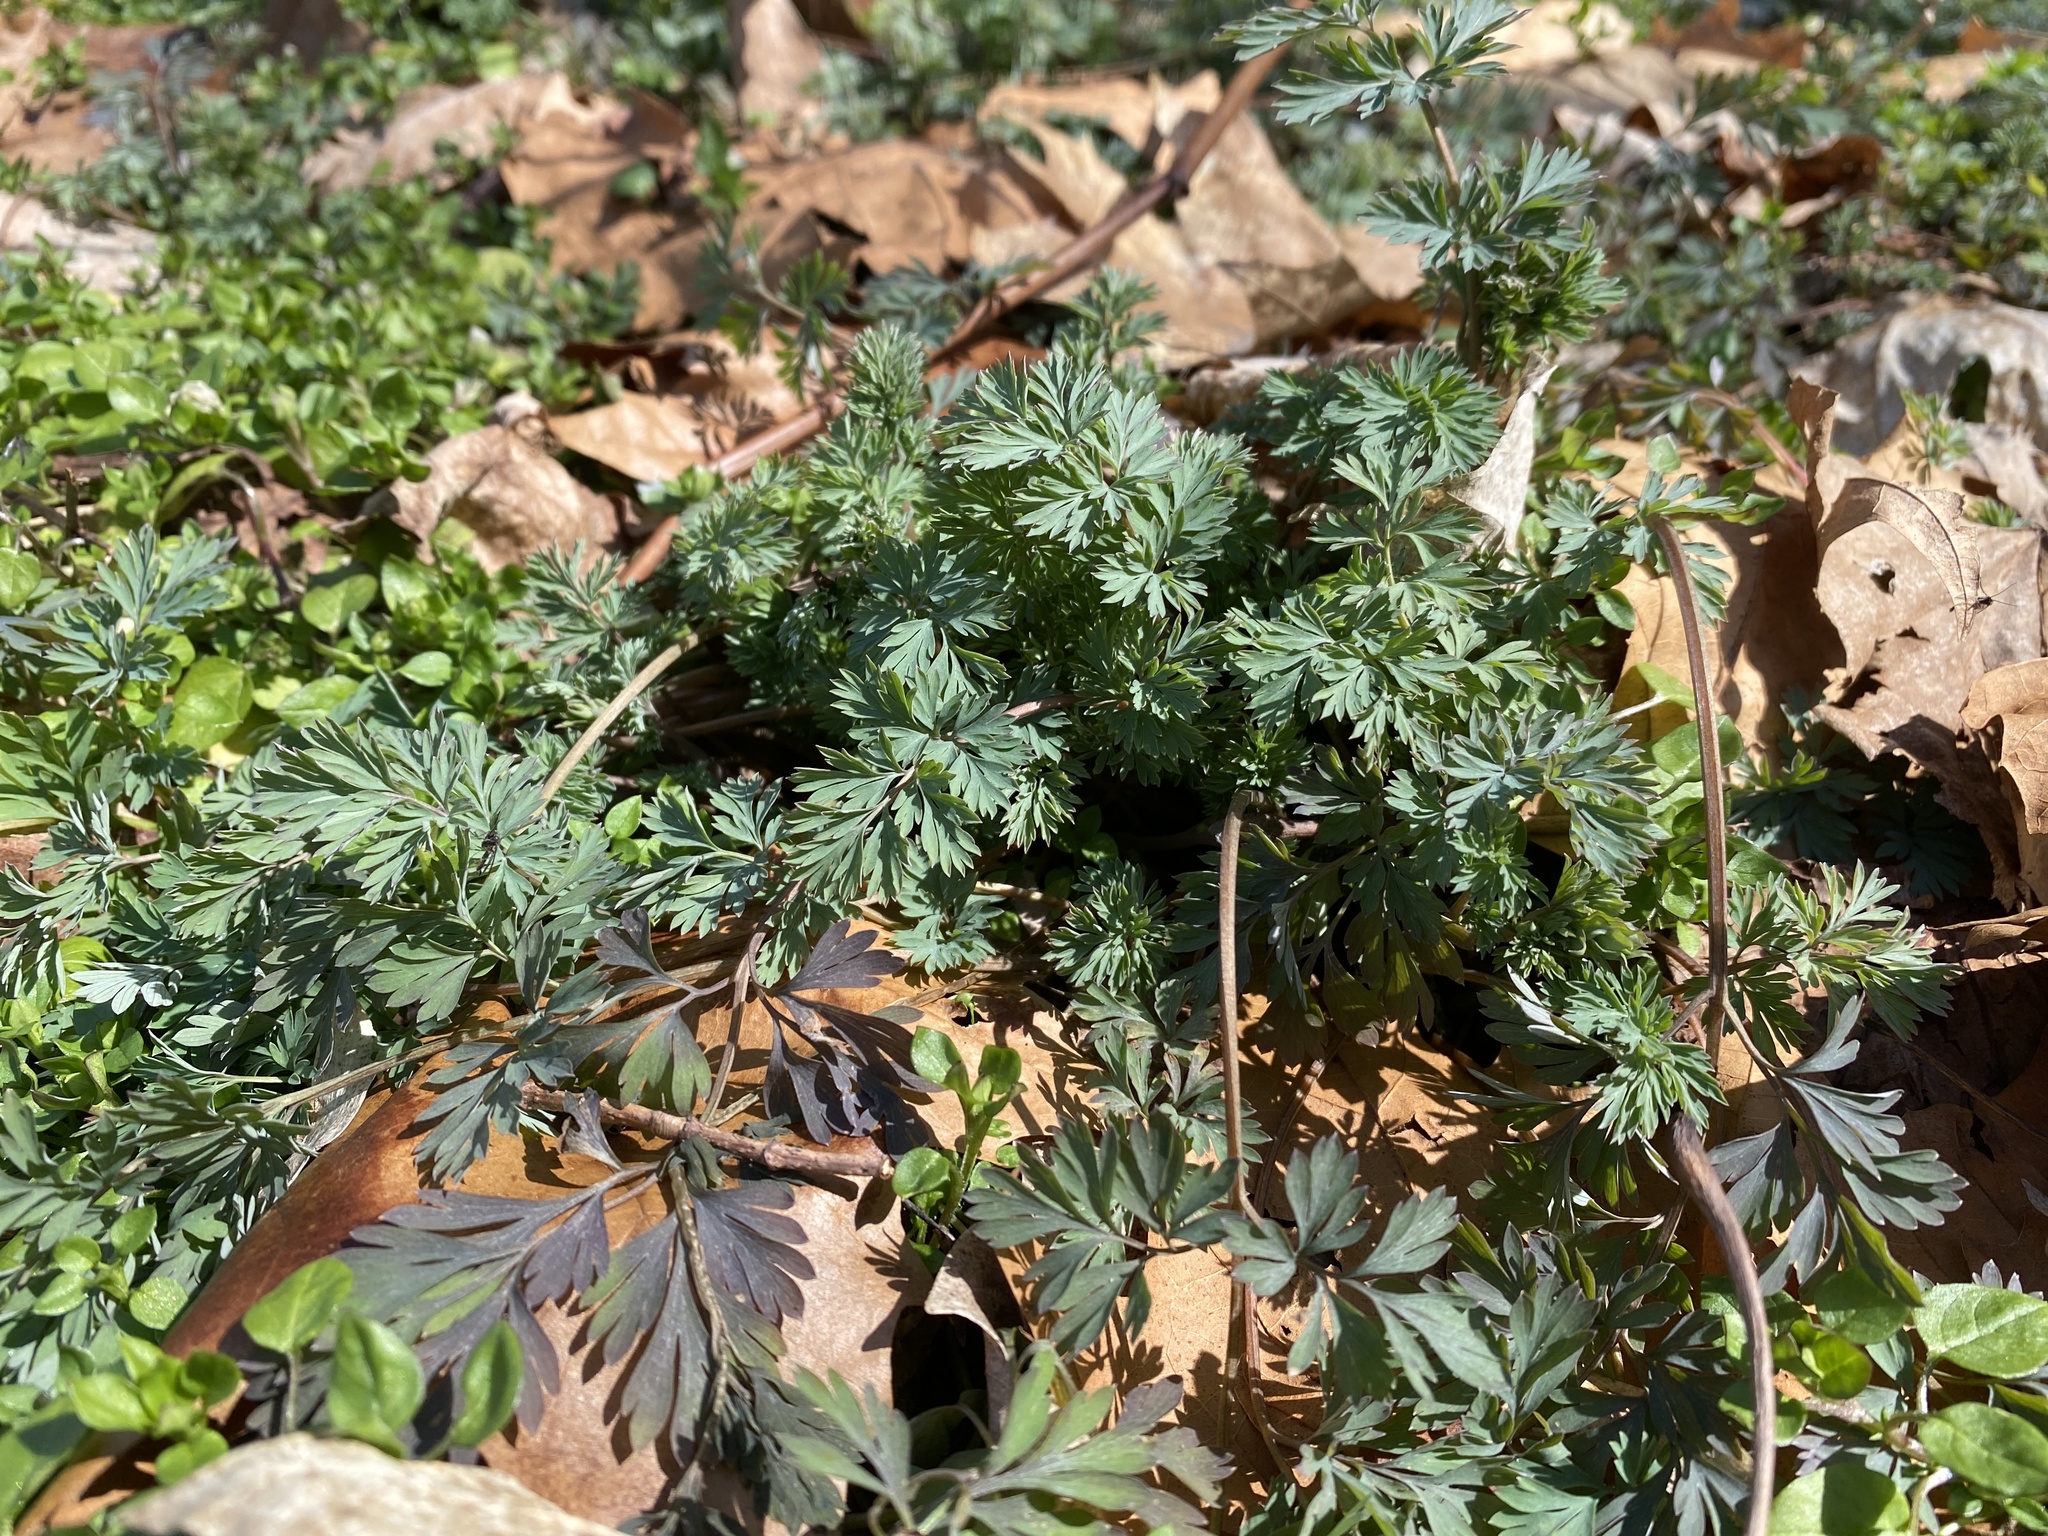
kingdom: Plantae
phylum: Tracheophyta
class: Magnoliopsida
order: Ranunculales
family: Papaveraceae
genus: Corydalis
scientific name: Corydalis flavula
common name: Yellow corydalis
